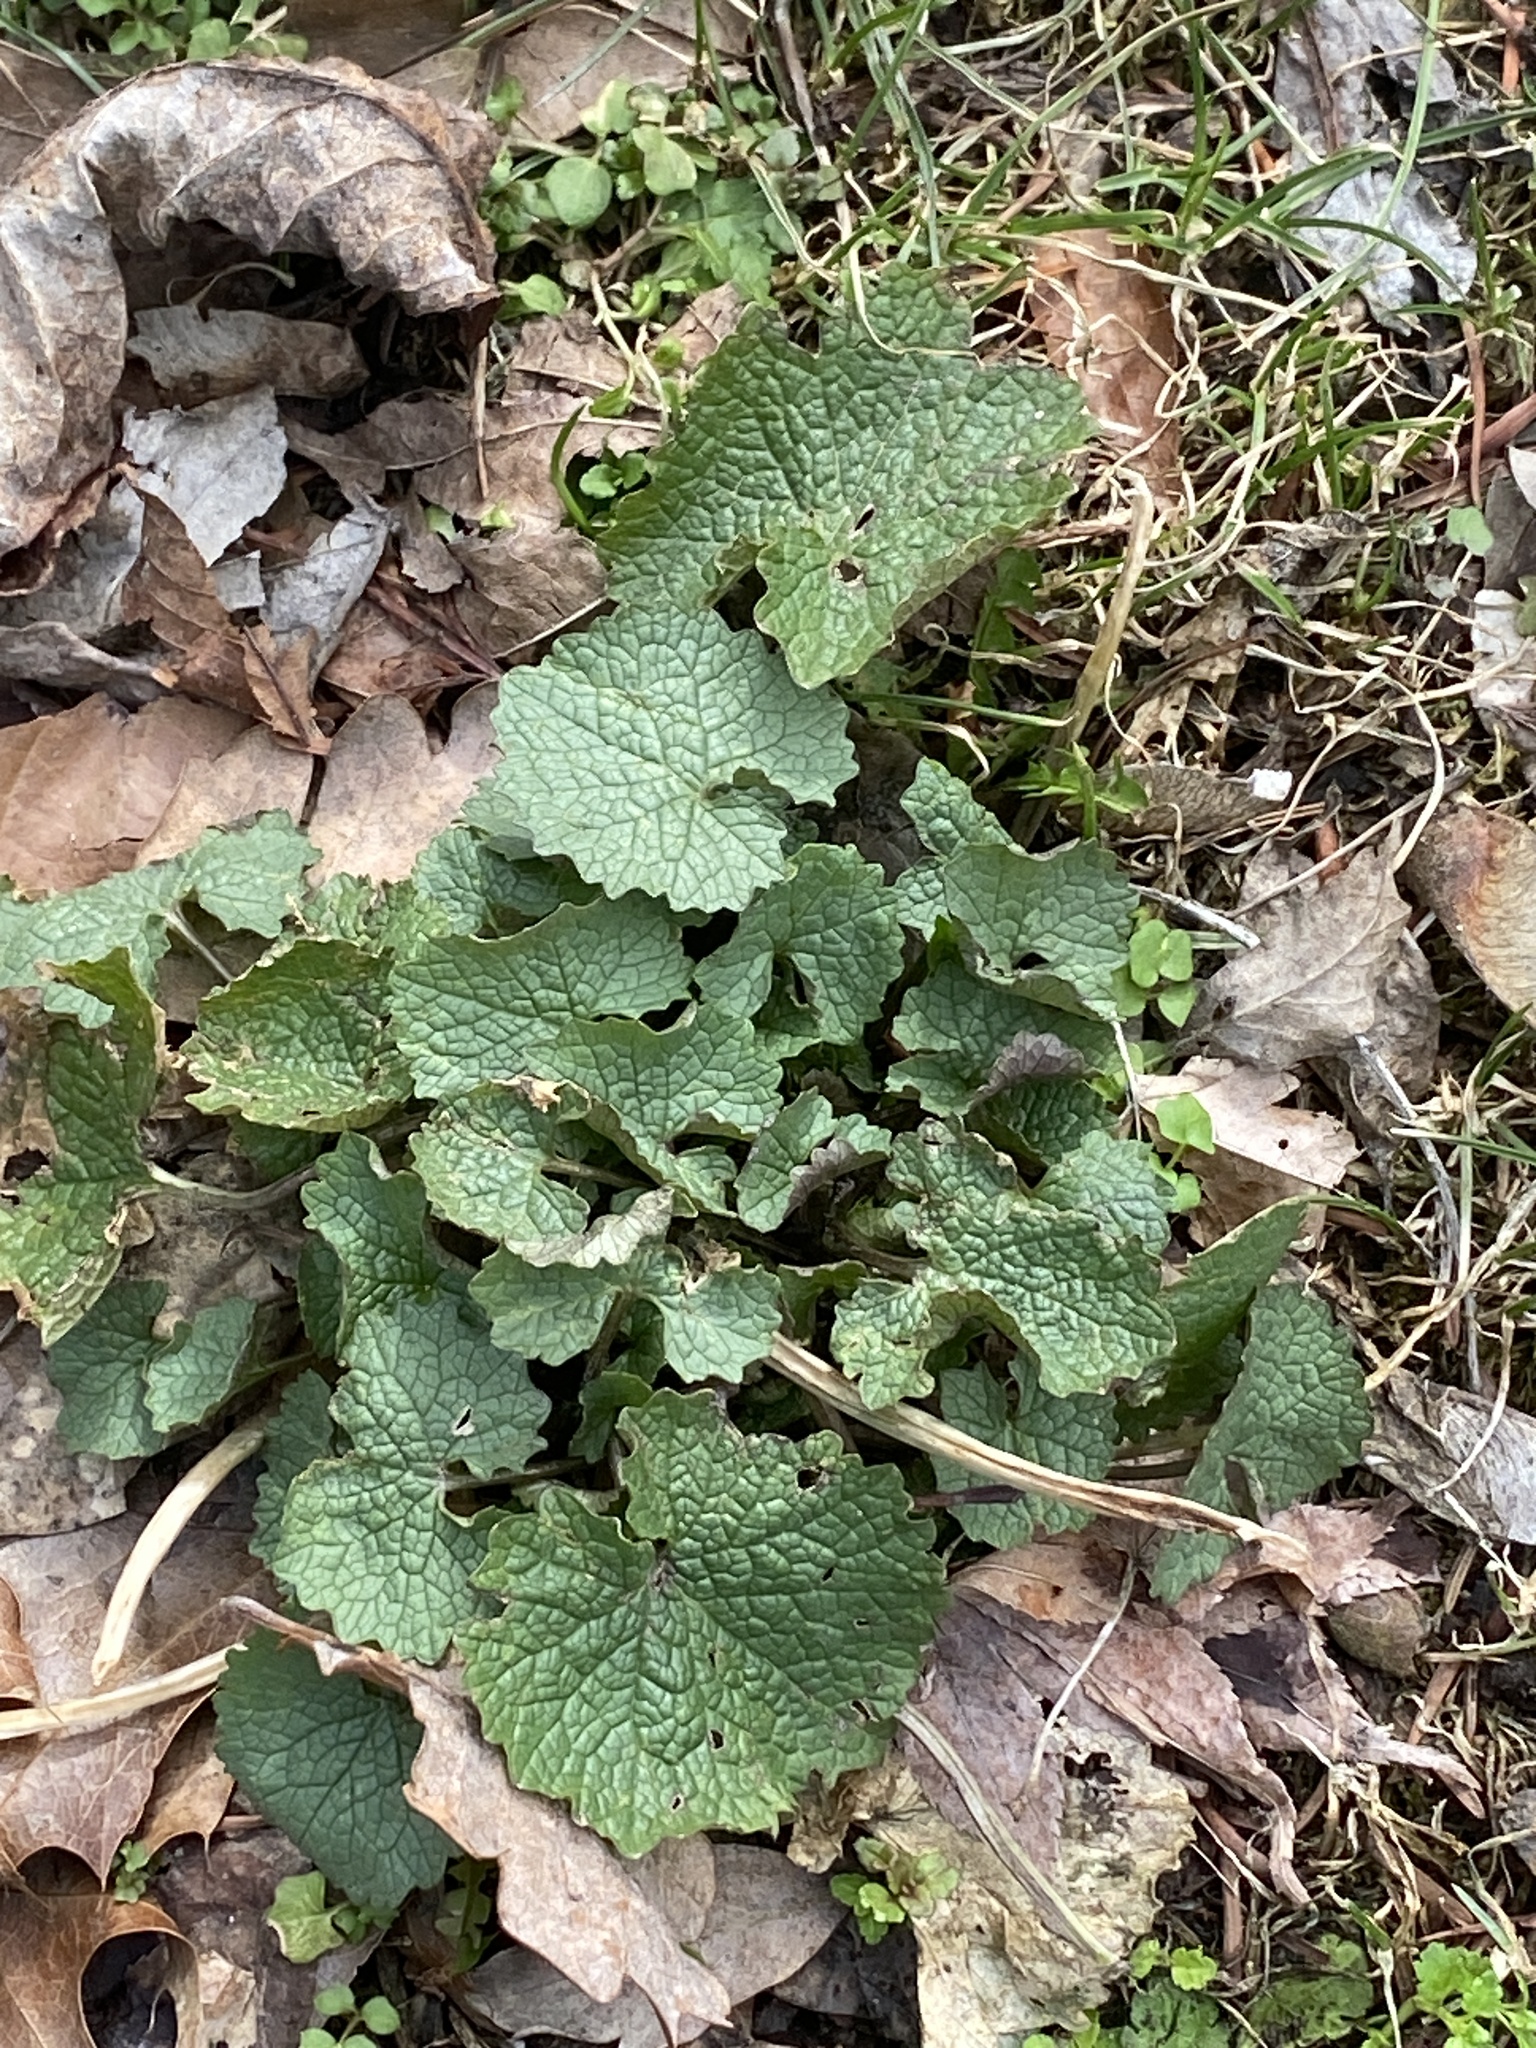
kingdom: Plantae
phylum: Tracheophyta
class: Magnoliopsida
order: Brassicales
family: Brassicaceae
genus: Alliaria
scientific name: Alliaria petiolata
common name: Garlic mustard
